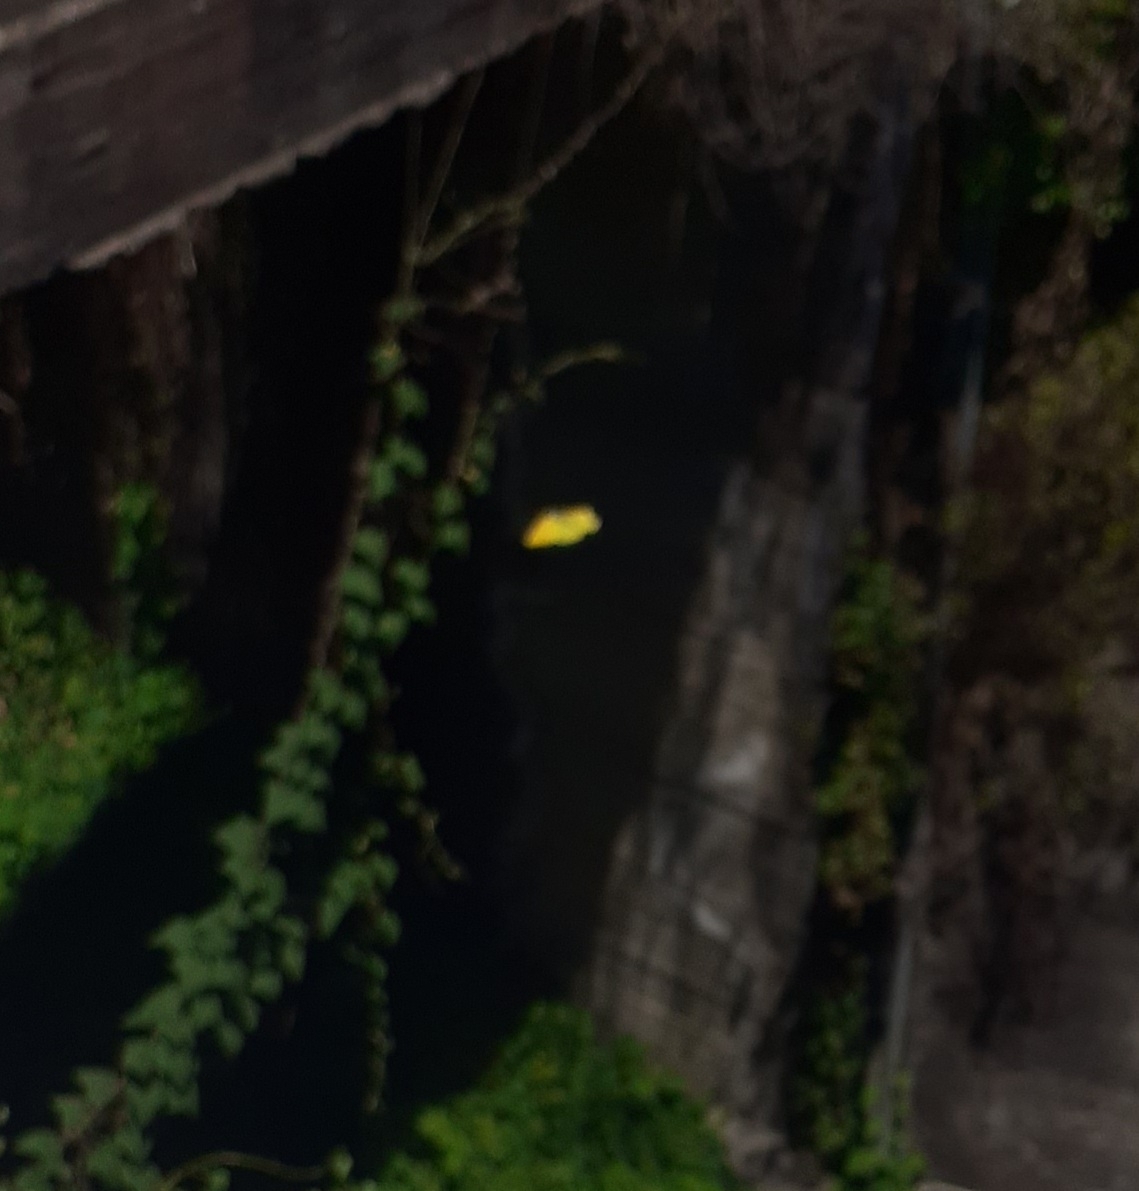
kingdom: Animalia
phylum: Arthropoda
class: Insecta
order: Lepidoptera
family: Pieridae
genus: Gonepteryx
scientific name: Gonepteryx cleobule
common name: Canary brimstone
